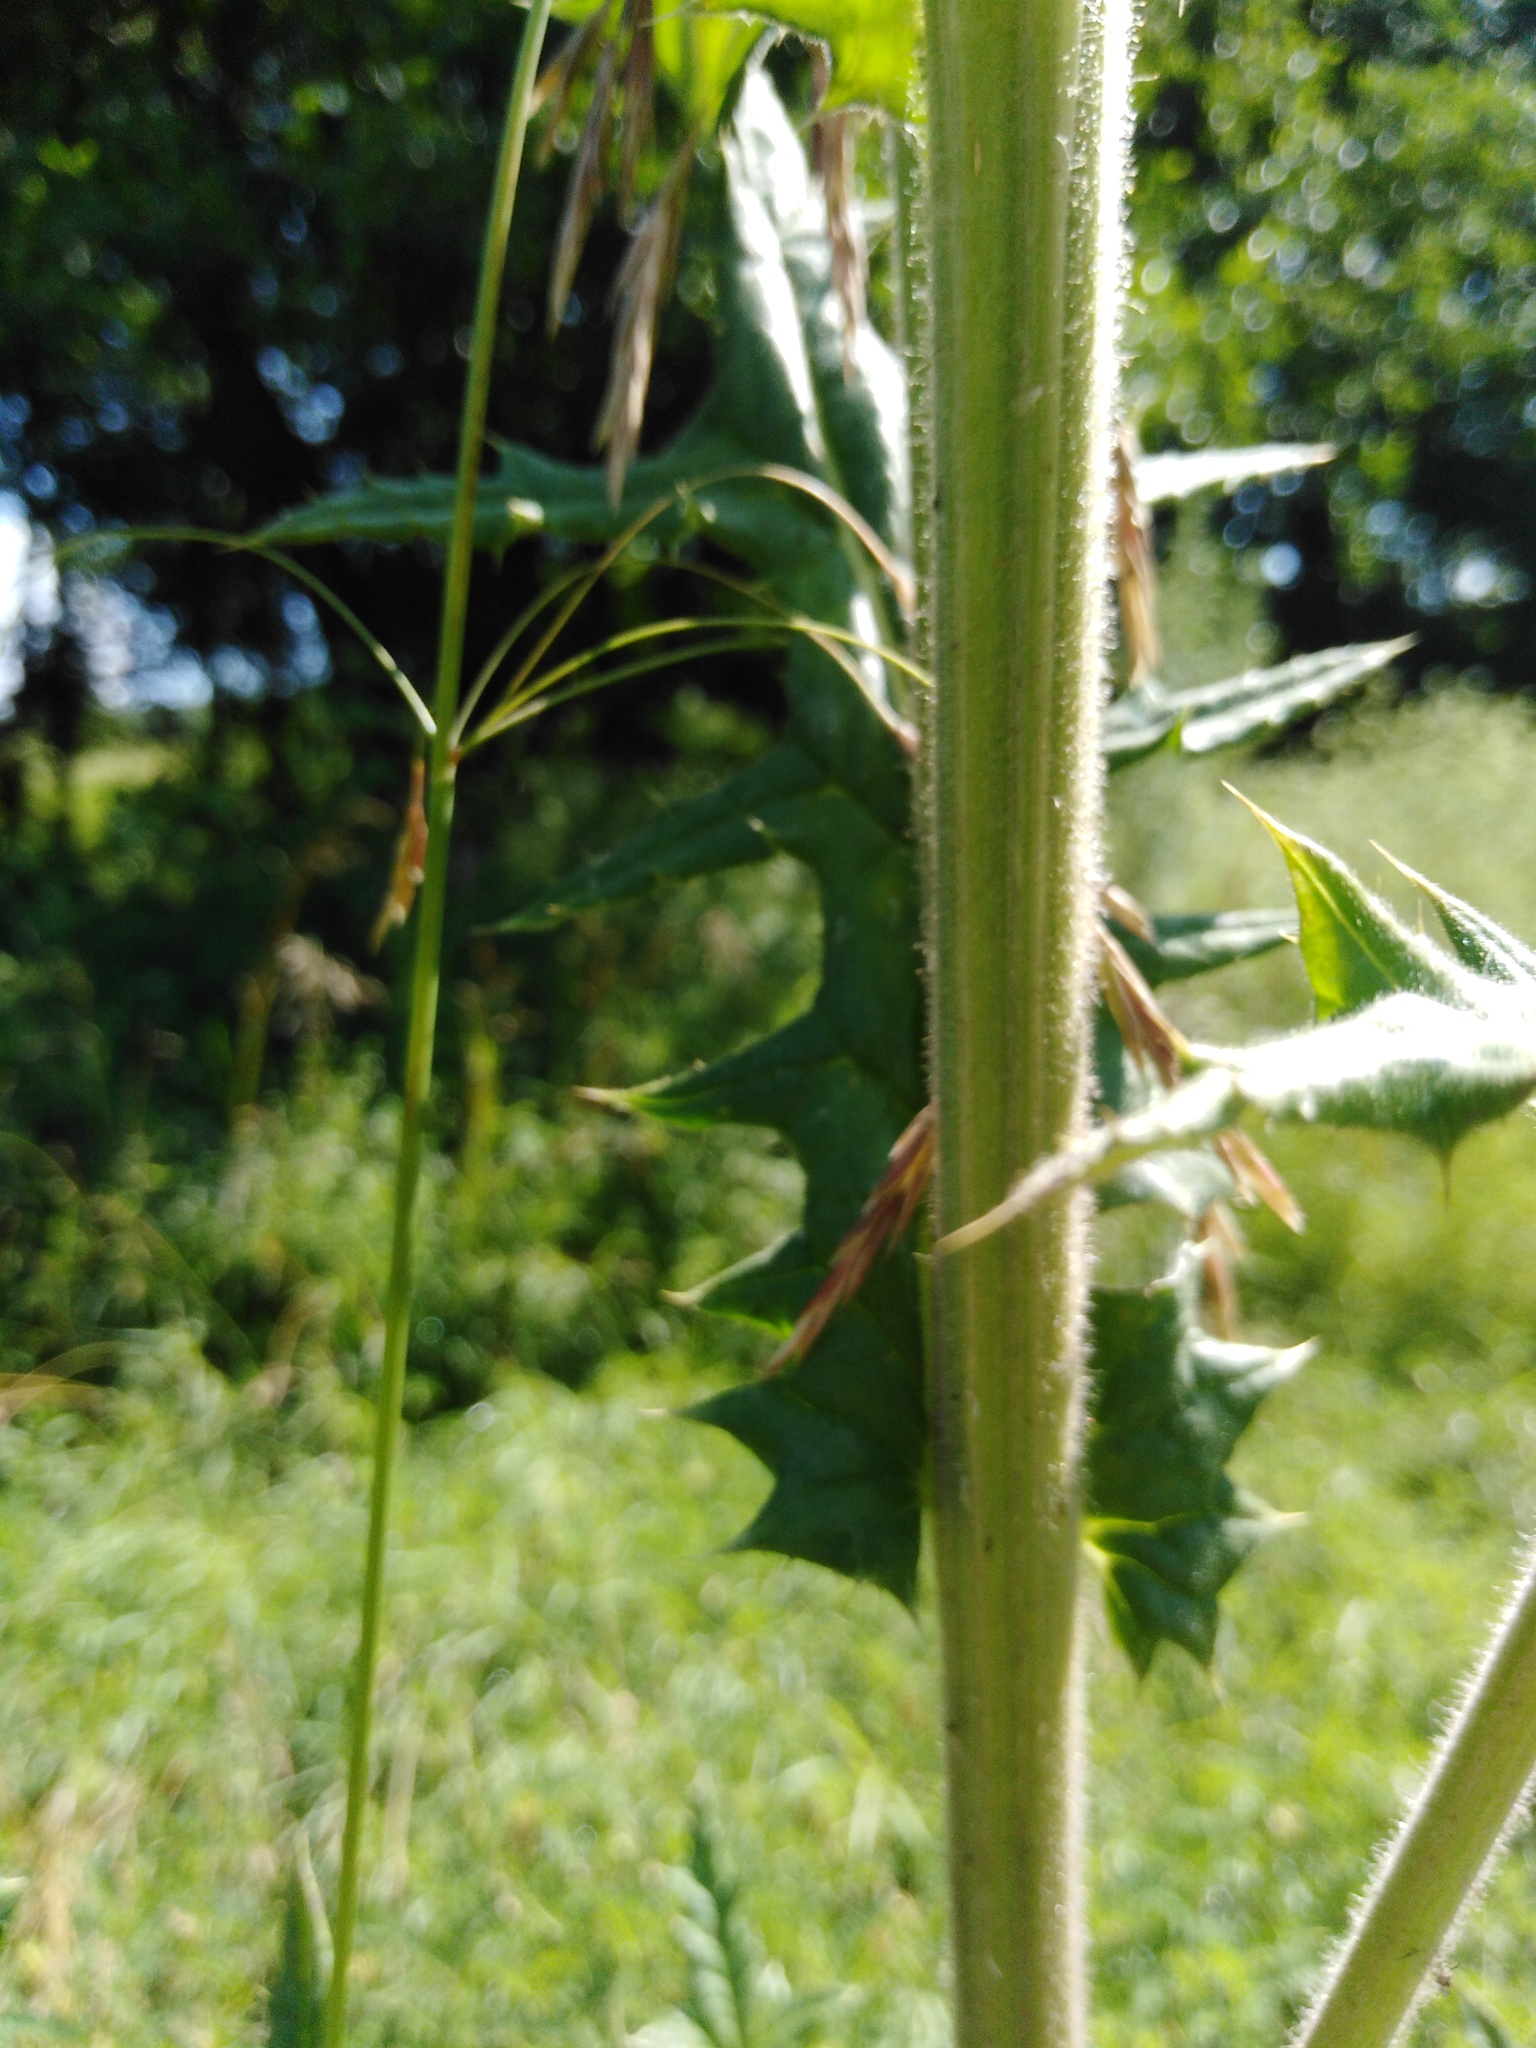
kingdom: Plantae
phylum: Tracheophyta
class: Magnoliopsida
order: Asterales
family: Asteraceae
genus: Echinops
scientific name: Echinops sphaerocephalus
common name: Glandular globe-thistle
